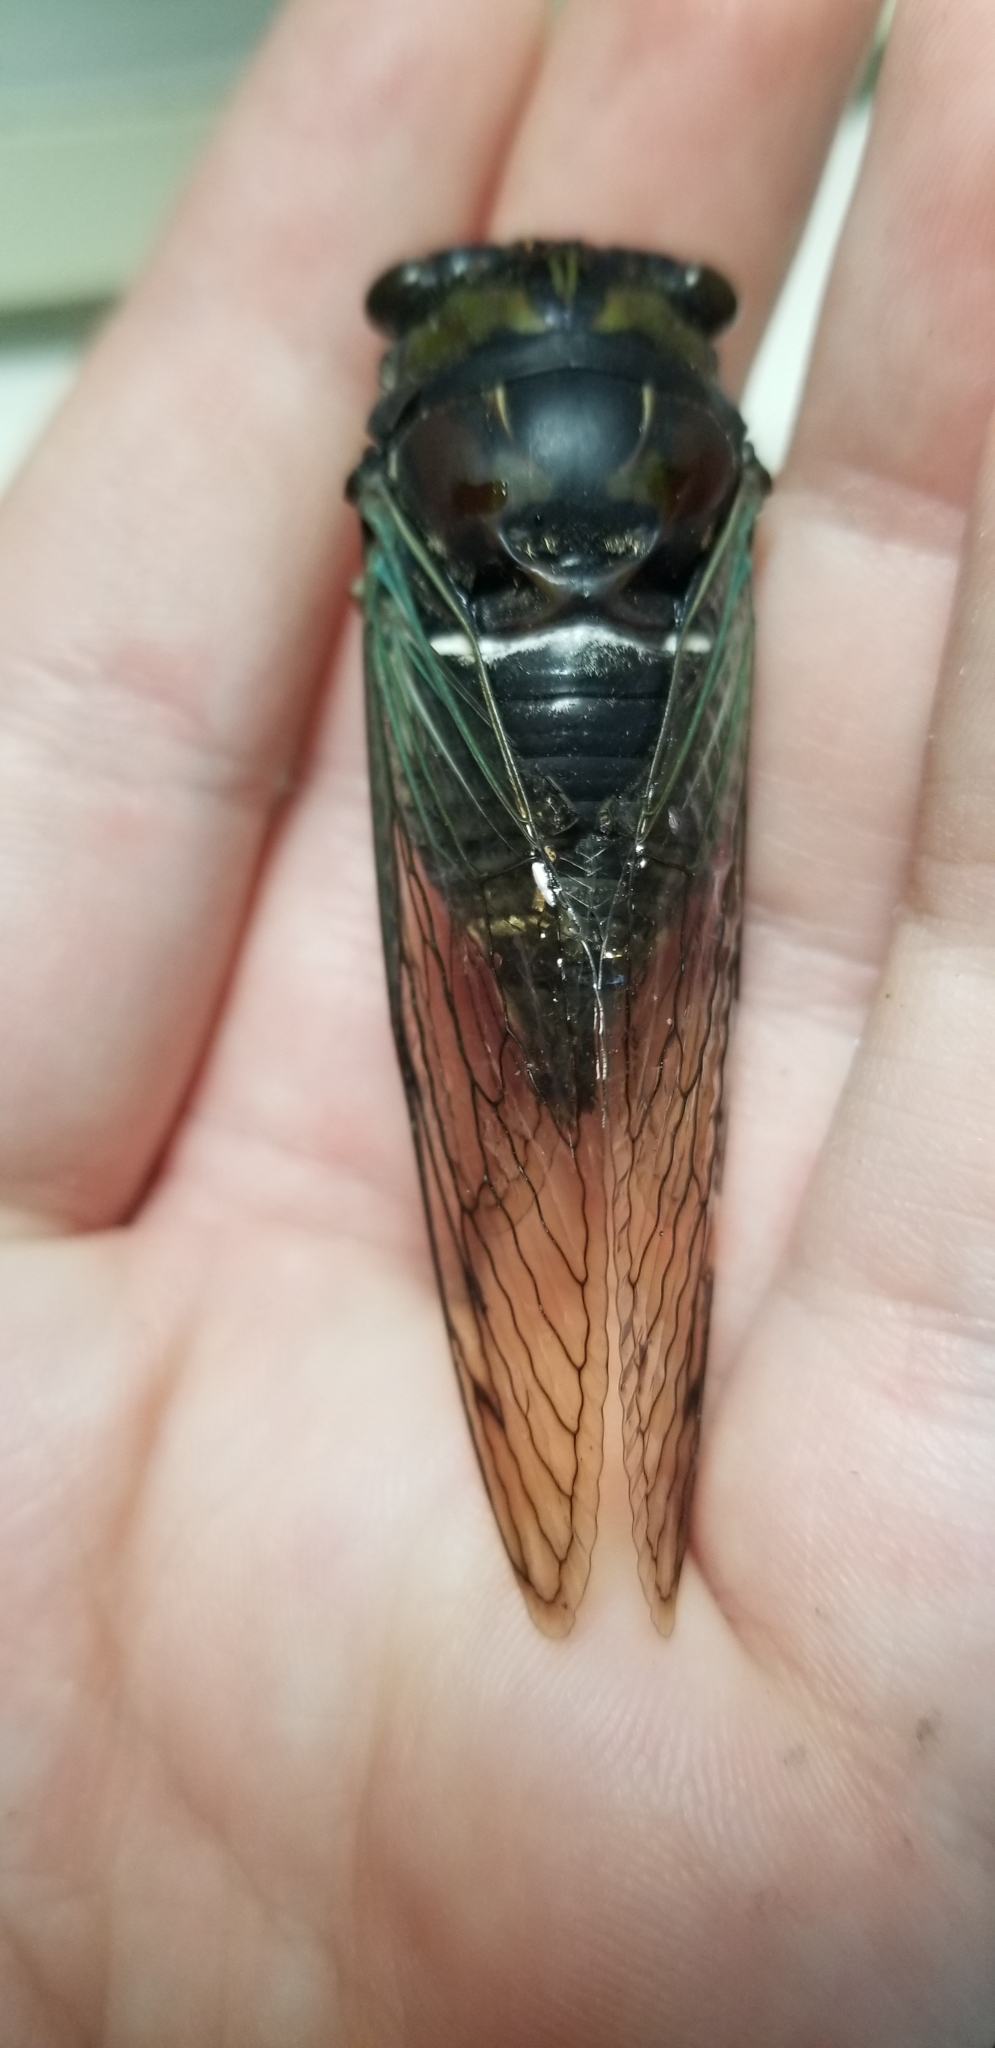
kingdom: Animalia
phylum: Arthropoda
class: Insecta
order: Hemiptera
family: Cicadidae
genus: Neotibicen
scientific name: Neotibicen lyricen
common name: Lyric cicada
